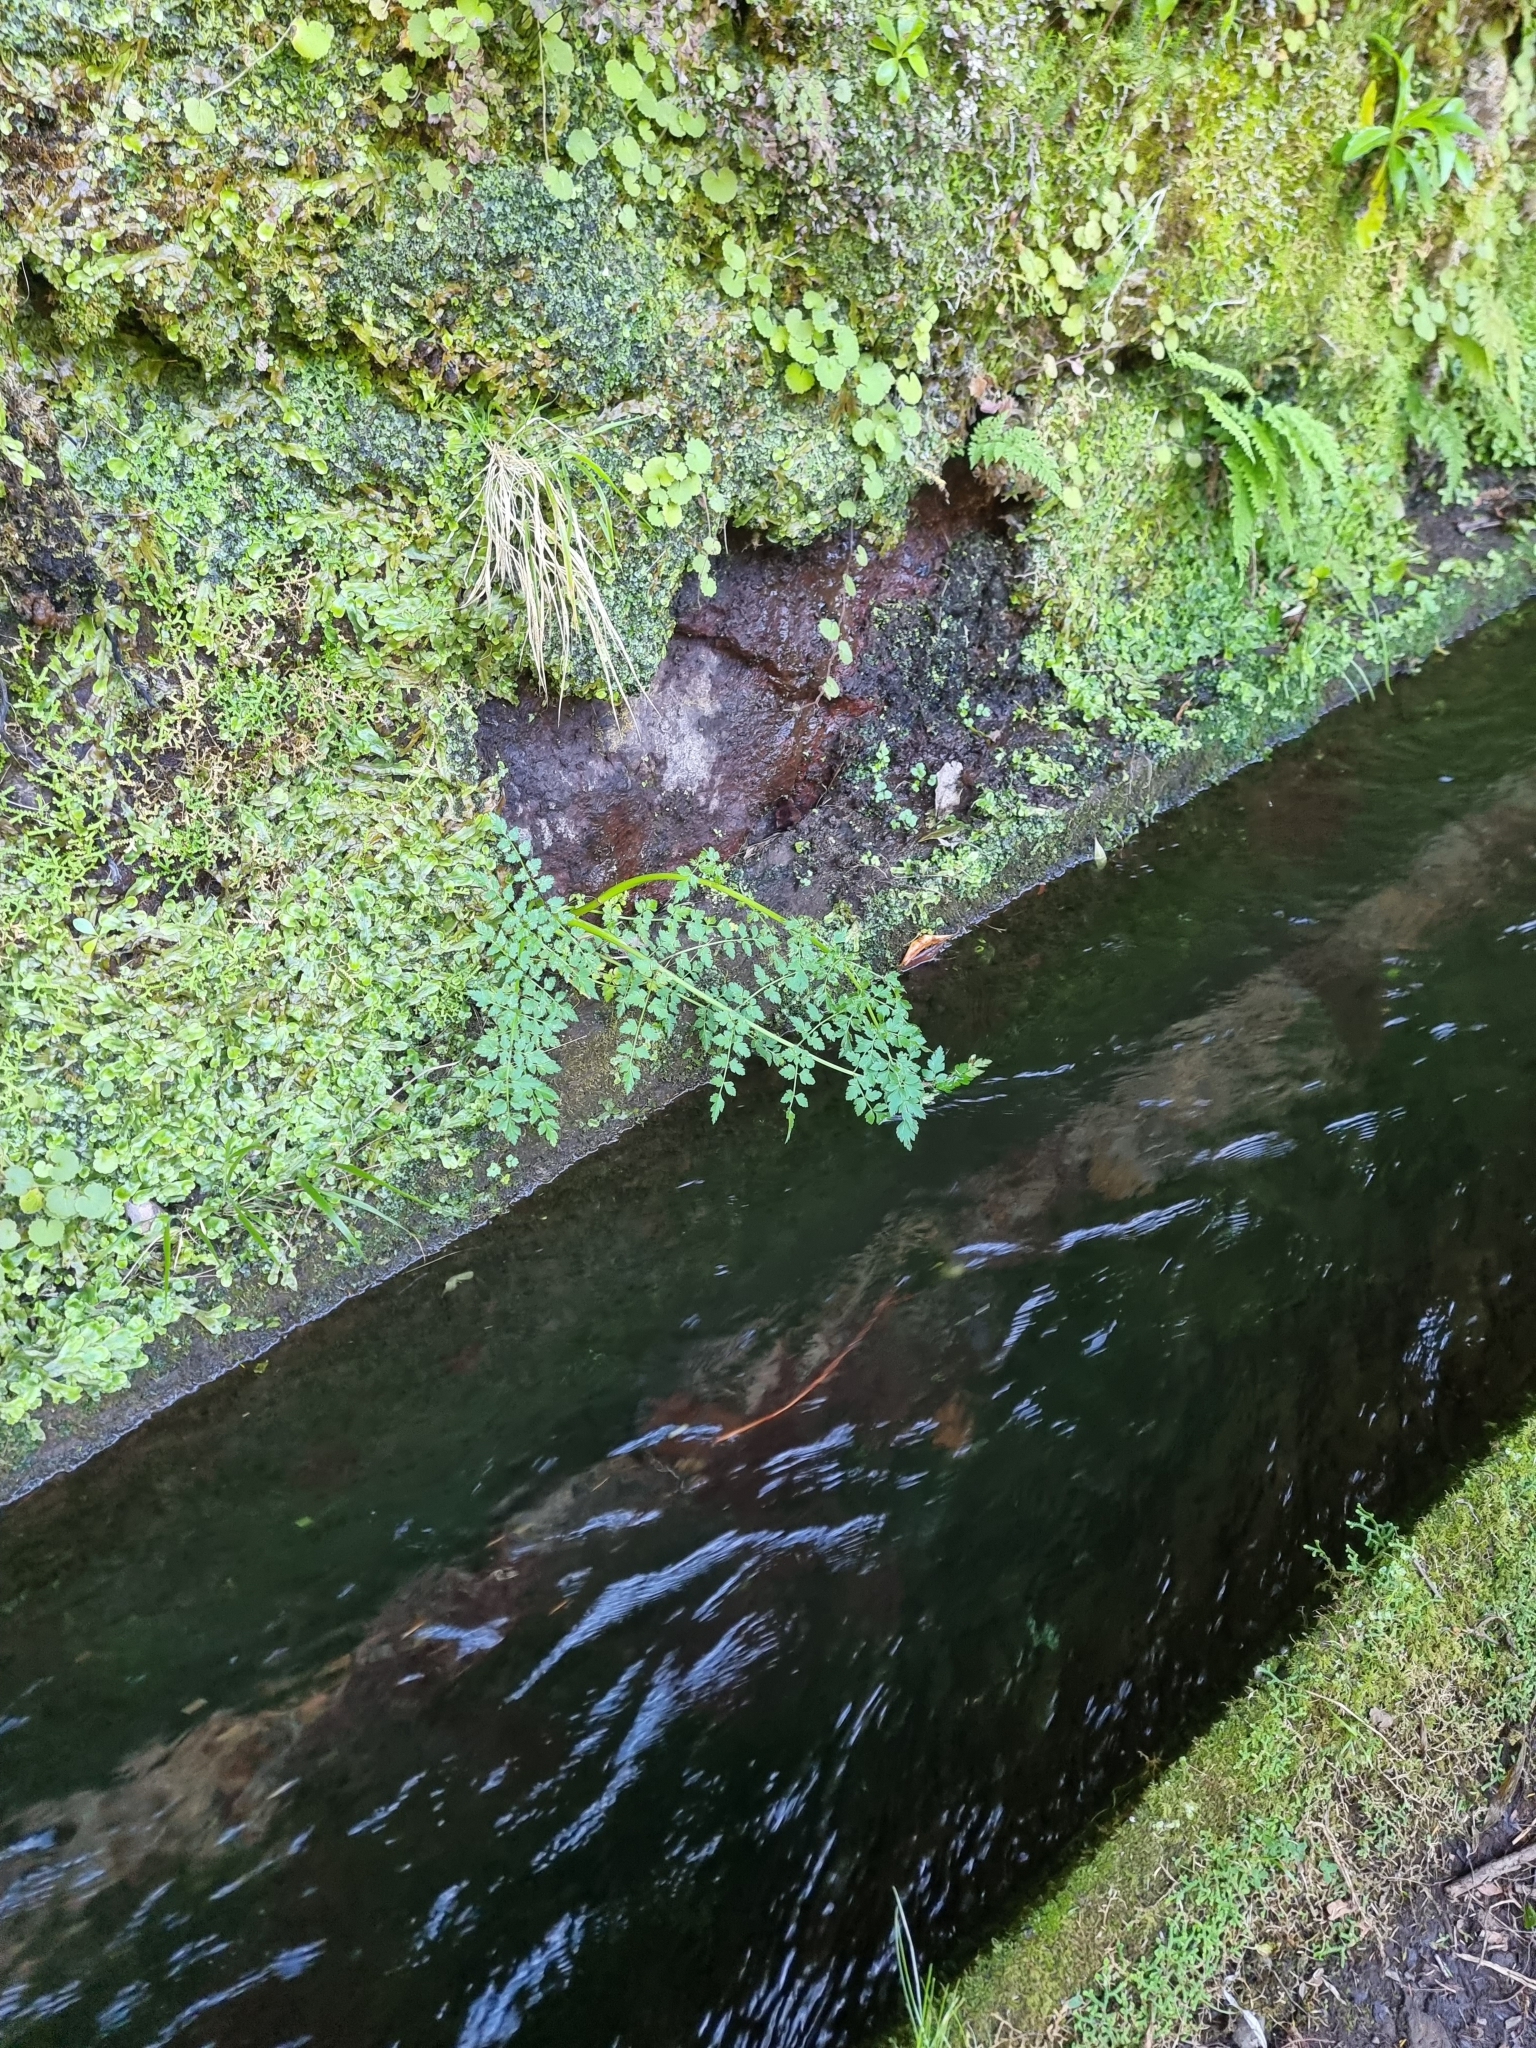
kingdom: Plantae
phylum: Tracheophyta
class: Magnoliopsida
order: Apiales
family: Apiaceae
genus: Oenanthe
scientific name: Oenanthe divaricata
